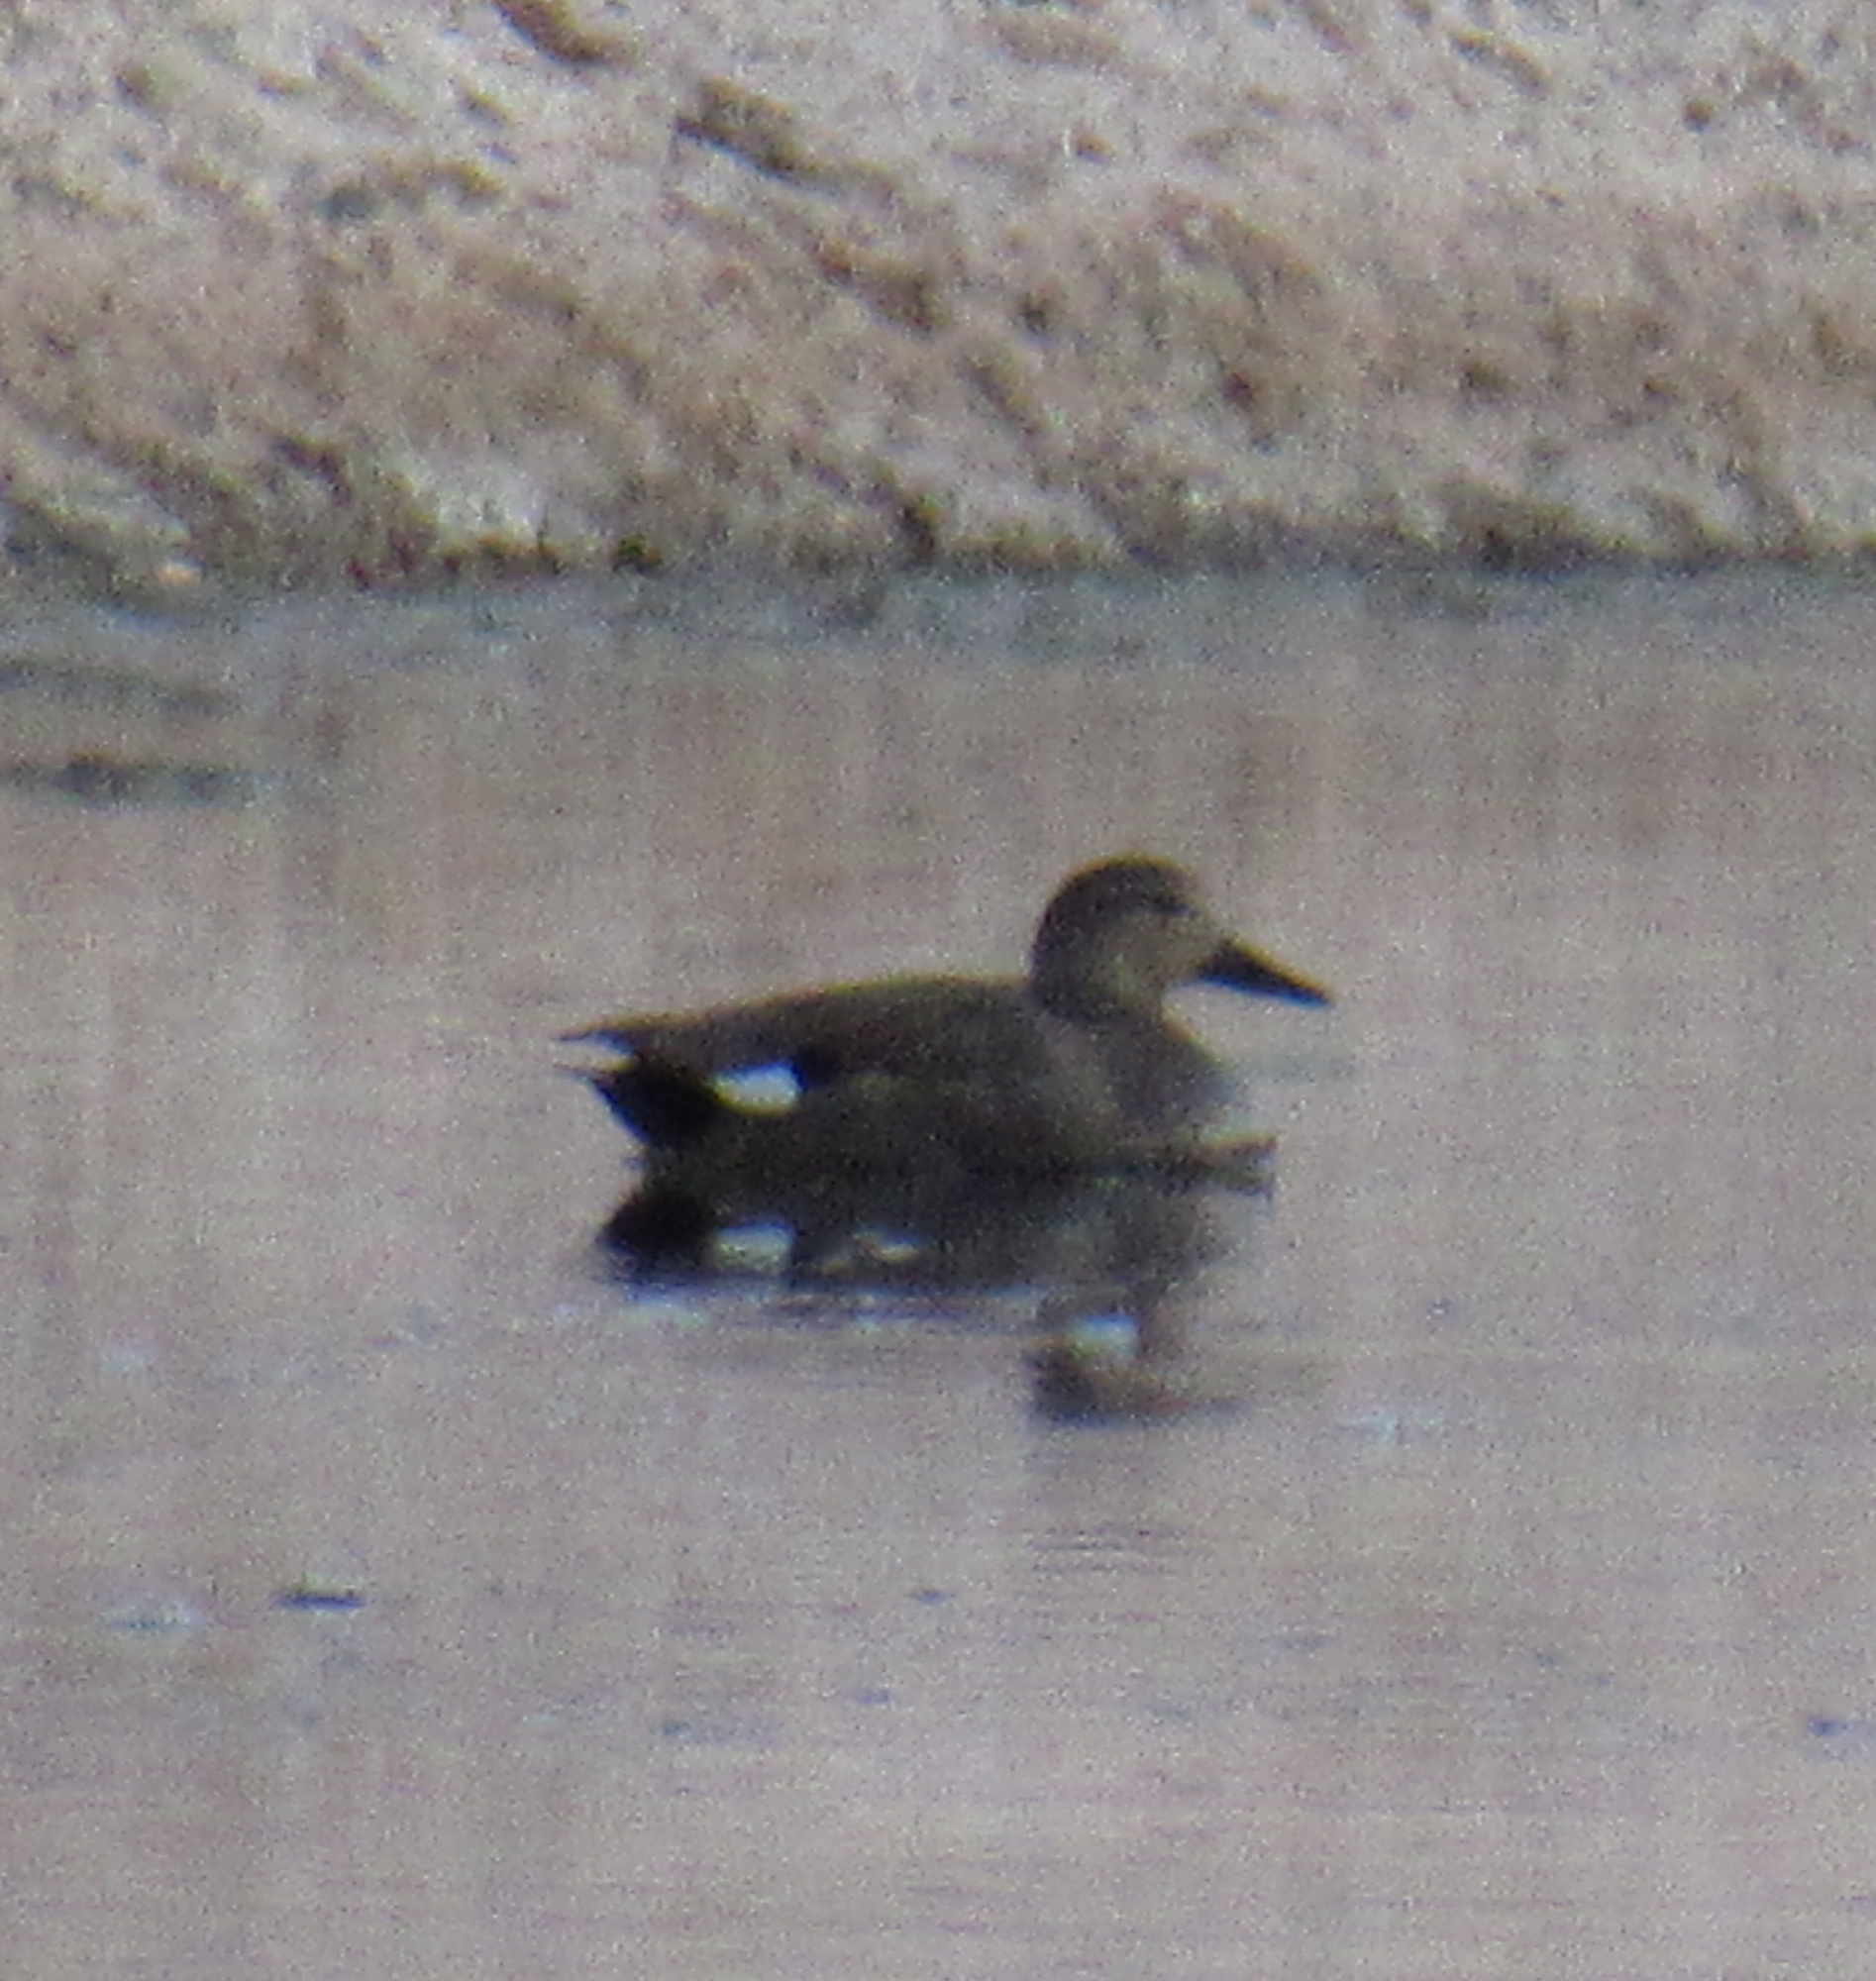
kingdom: Animalia
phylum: Chordata
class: Aves
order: Anseriformes
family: Anatidae
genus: Mareca
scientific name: Mareca strepera
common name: Gadwall
